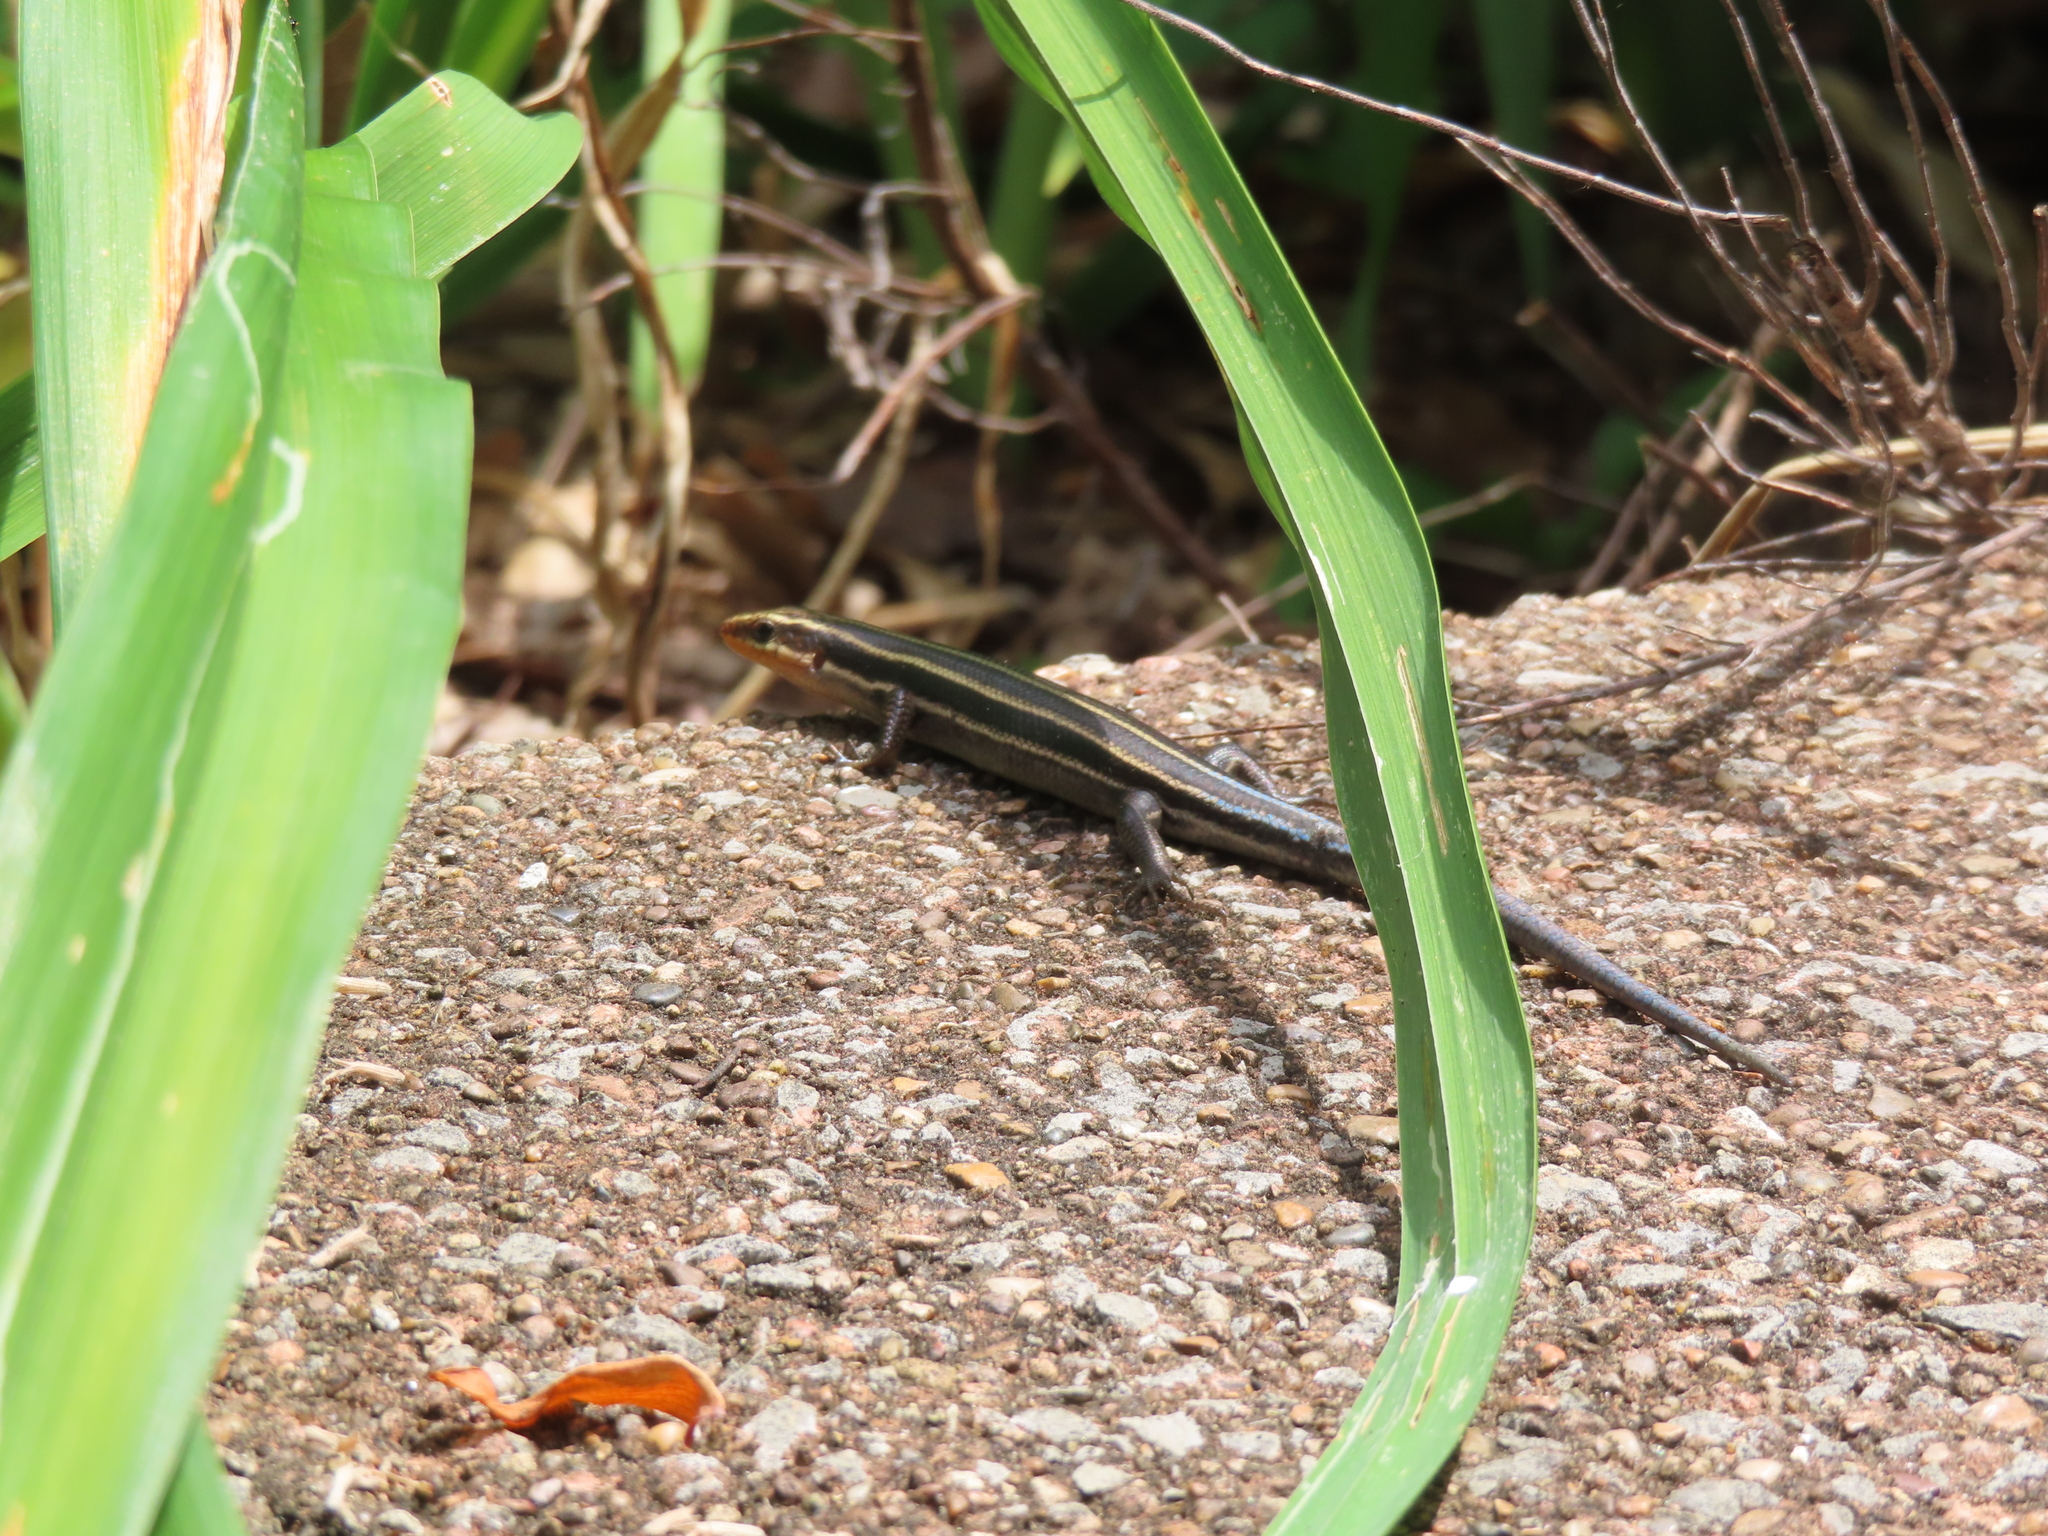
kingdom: Animalia
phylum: Chordata
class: Squamata
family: Scincidae
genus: Plestiodon
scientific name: Plestiodon fasciatus
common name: Five-lined skink
